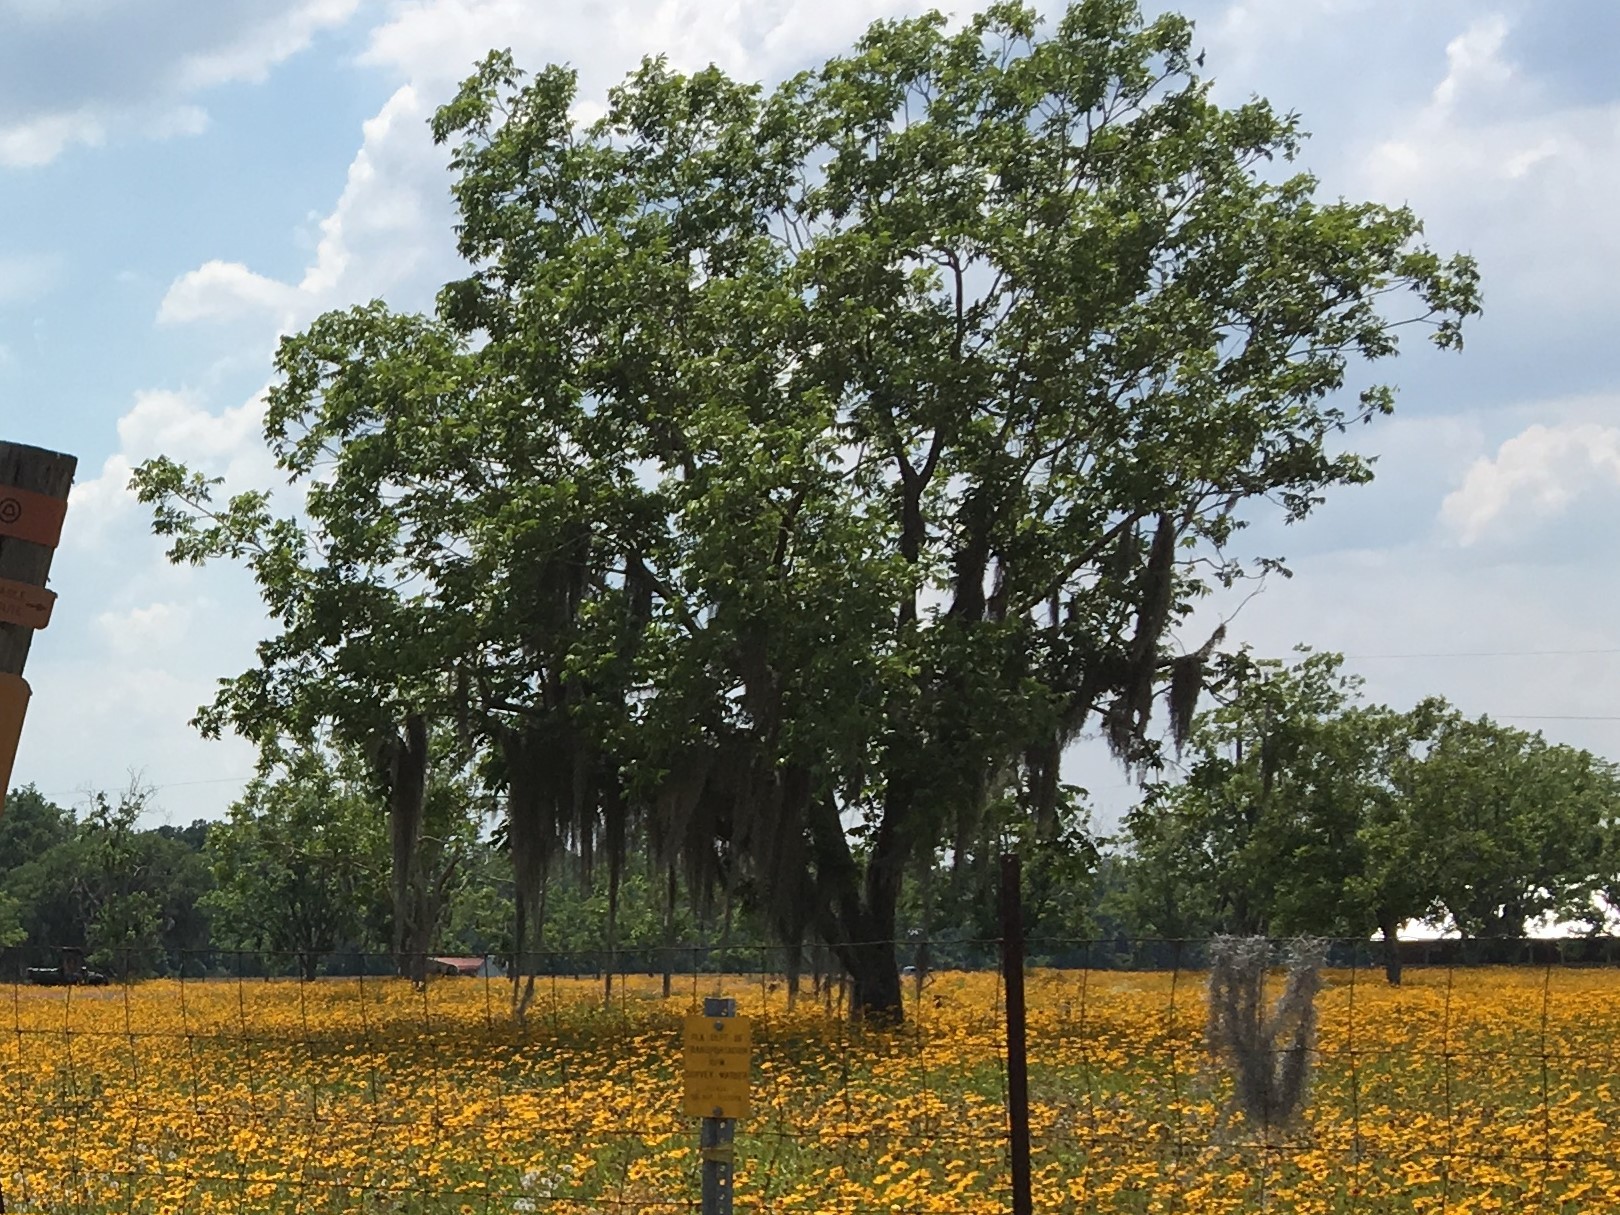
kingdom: Plantae
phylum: Tracheophyta
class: Liliopsida
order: Poales
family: Bromeliaceae
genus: Tillandsia
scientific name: Tillandsia usneoides
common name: Spanish moss
